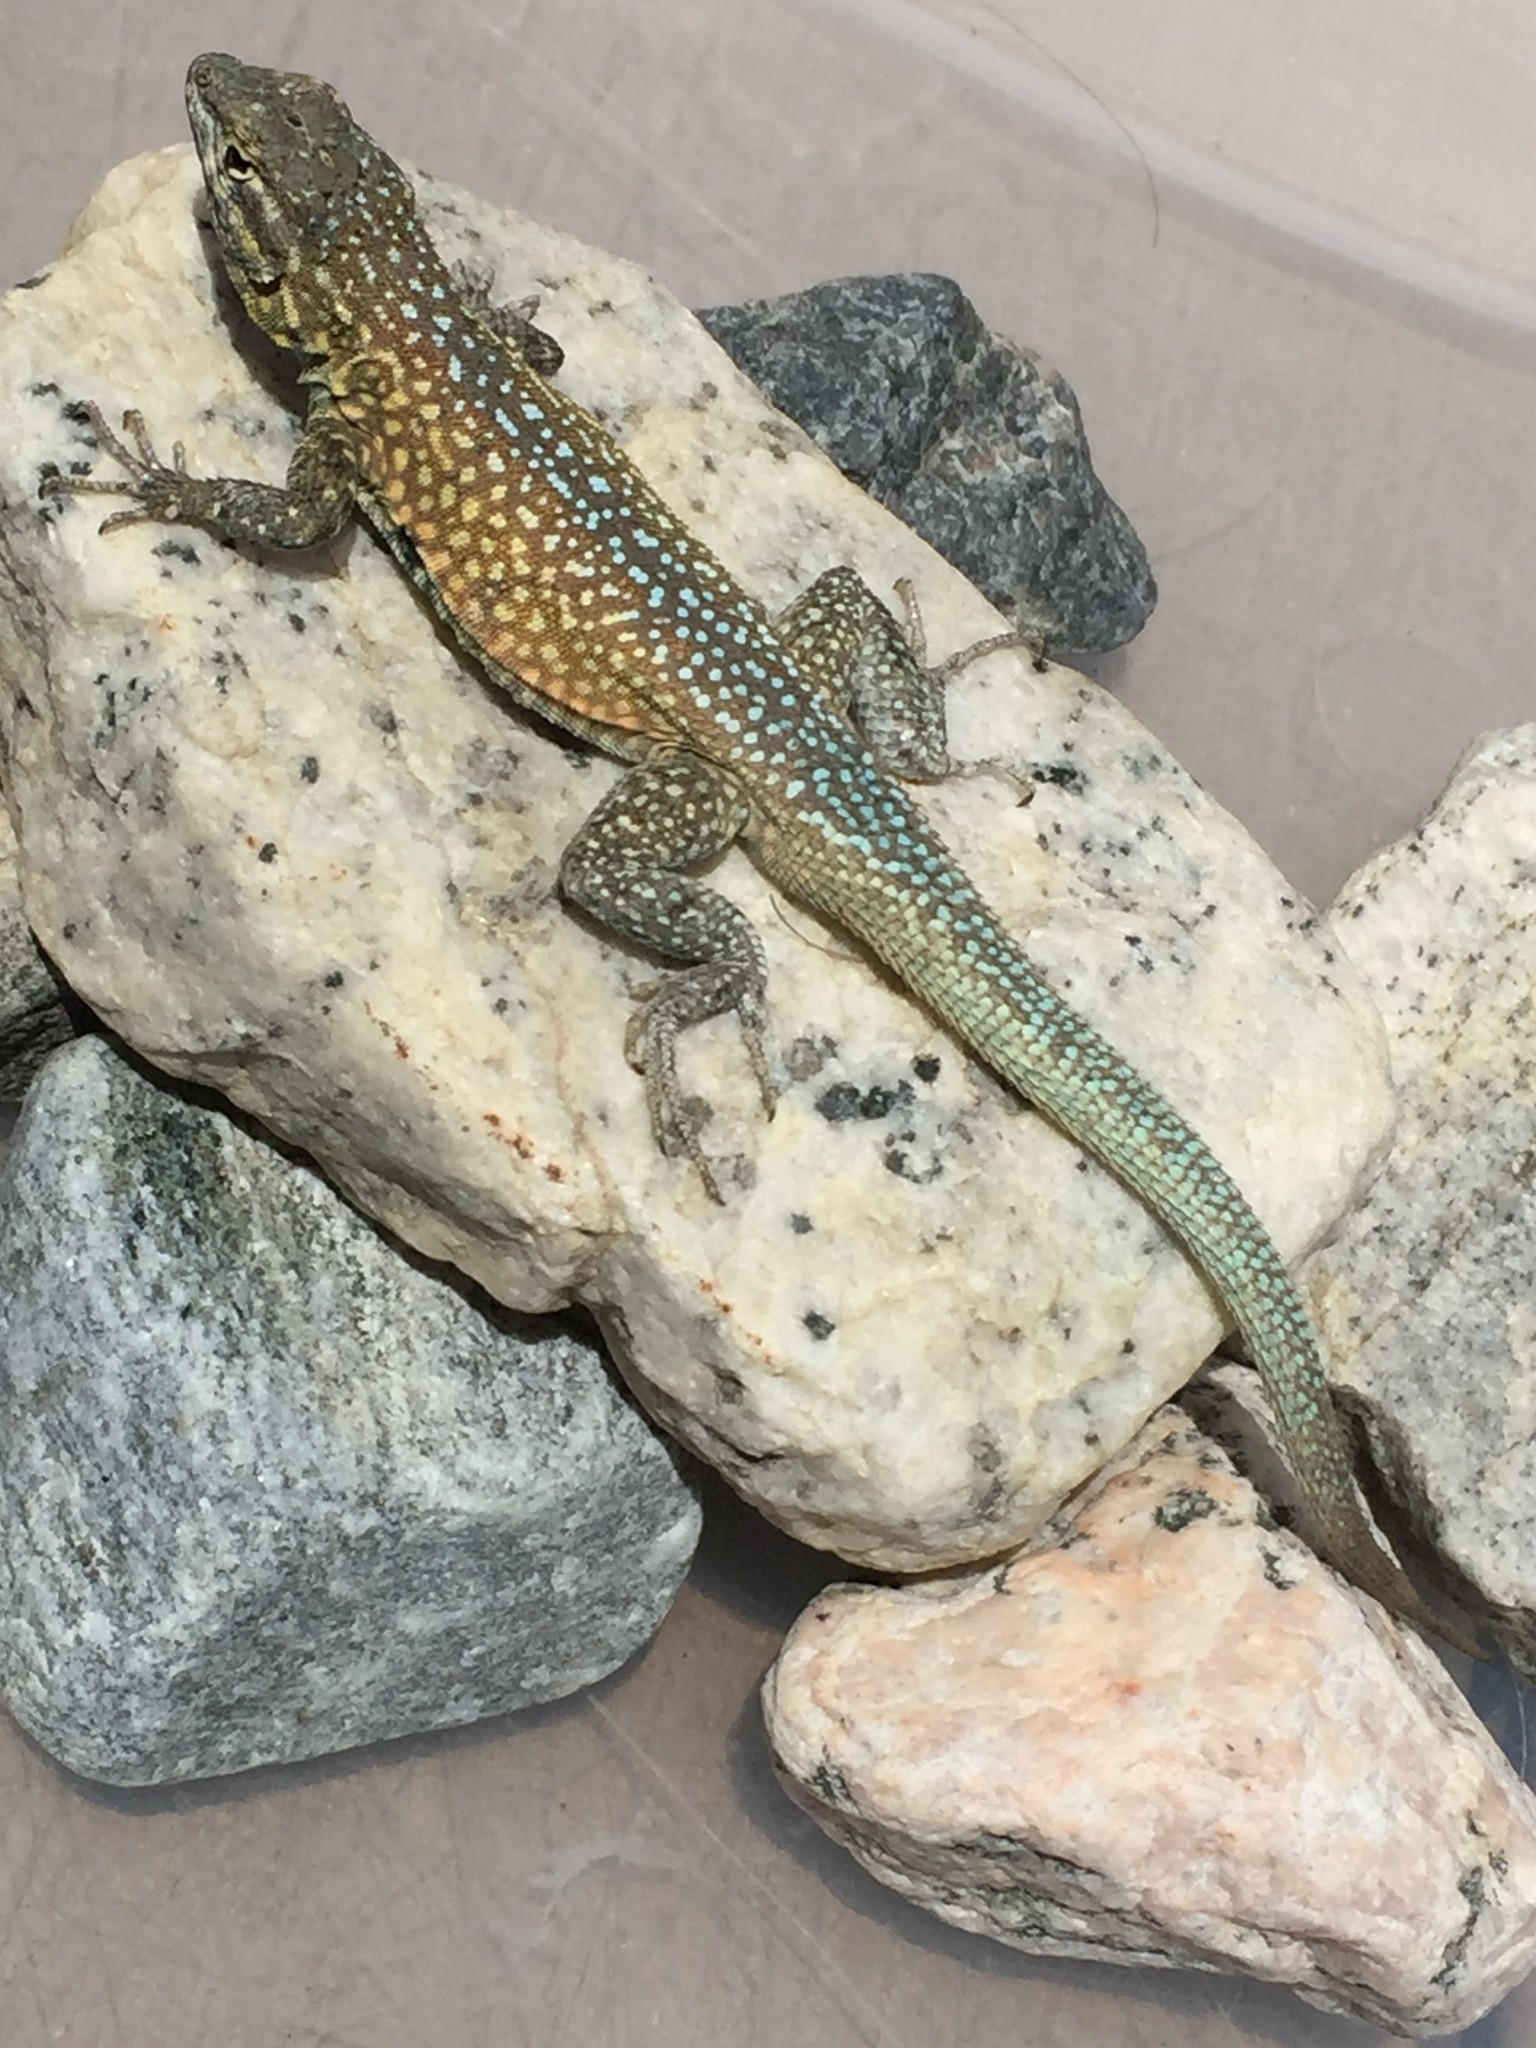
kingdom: Animalia
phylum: Chordata
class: Squamata
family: Phrynosomatidae
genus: Uta
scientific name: Uta stansburiana
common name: Side-blotched lizard
